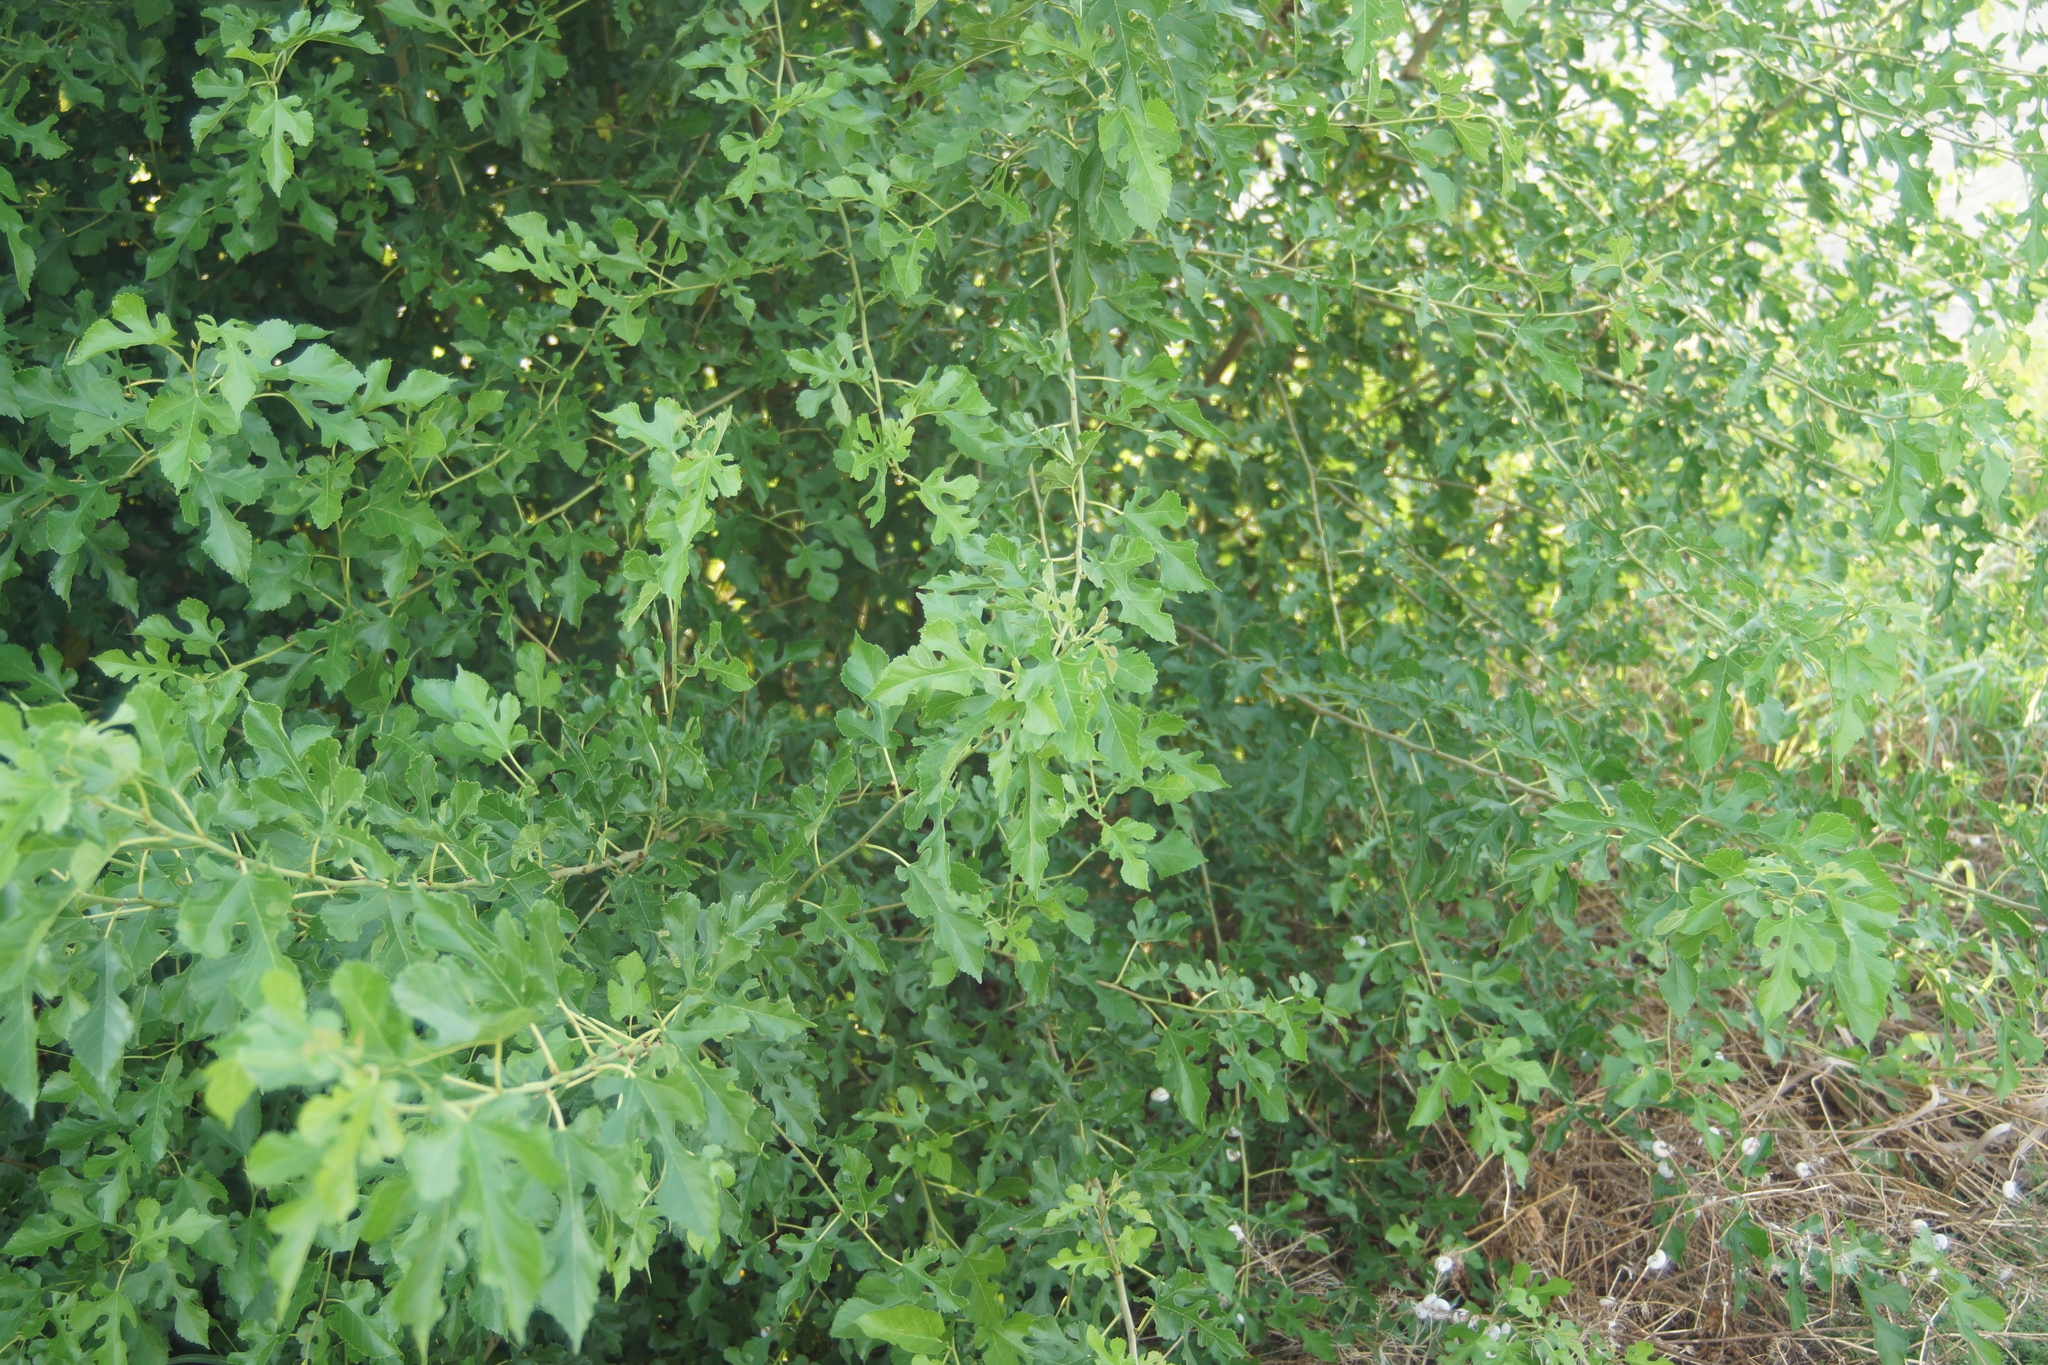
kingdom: Plantae
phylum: Tracheophyta
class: Magnoliopsida
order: Rosales
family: Moraceae
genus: Morus
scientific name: Morus alba
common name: White mulberry
